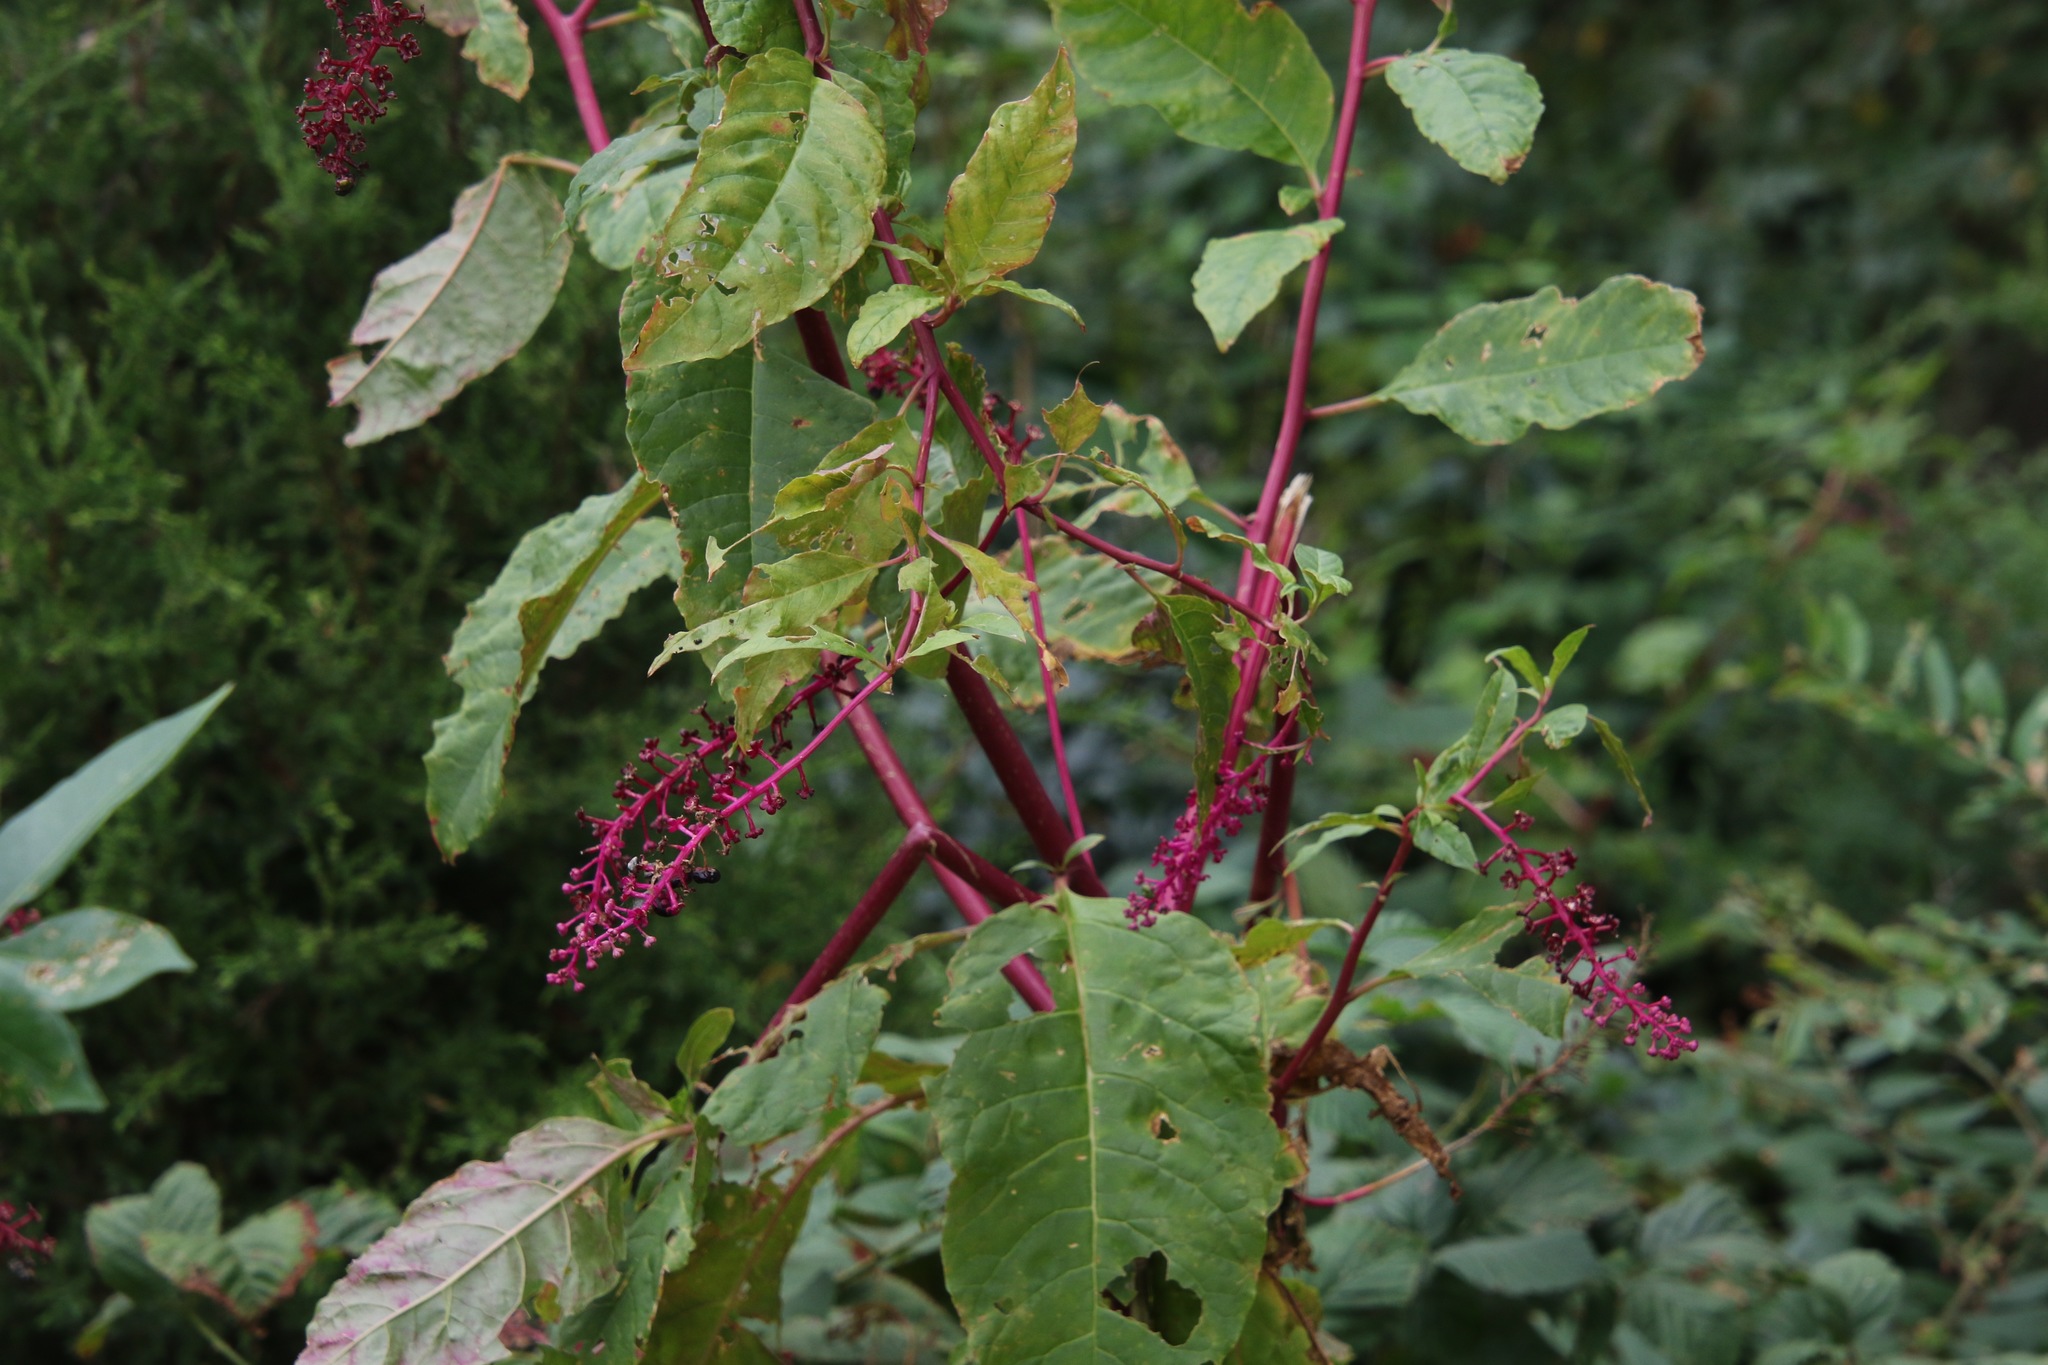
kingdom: Plantae
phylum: Tracheophyta
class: Magnoliopsida
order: Caryophyllales
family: Phytolaccaceae
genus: Phytolacca
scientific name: Phytolacca americana
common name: American pokeweed
